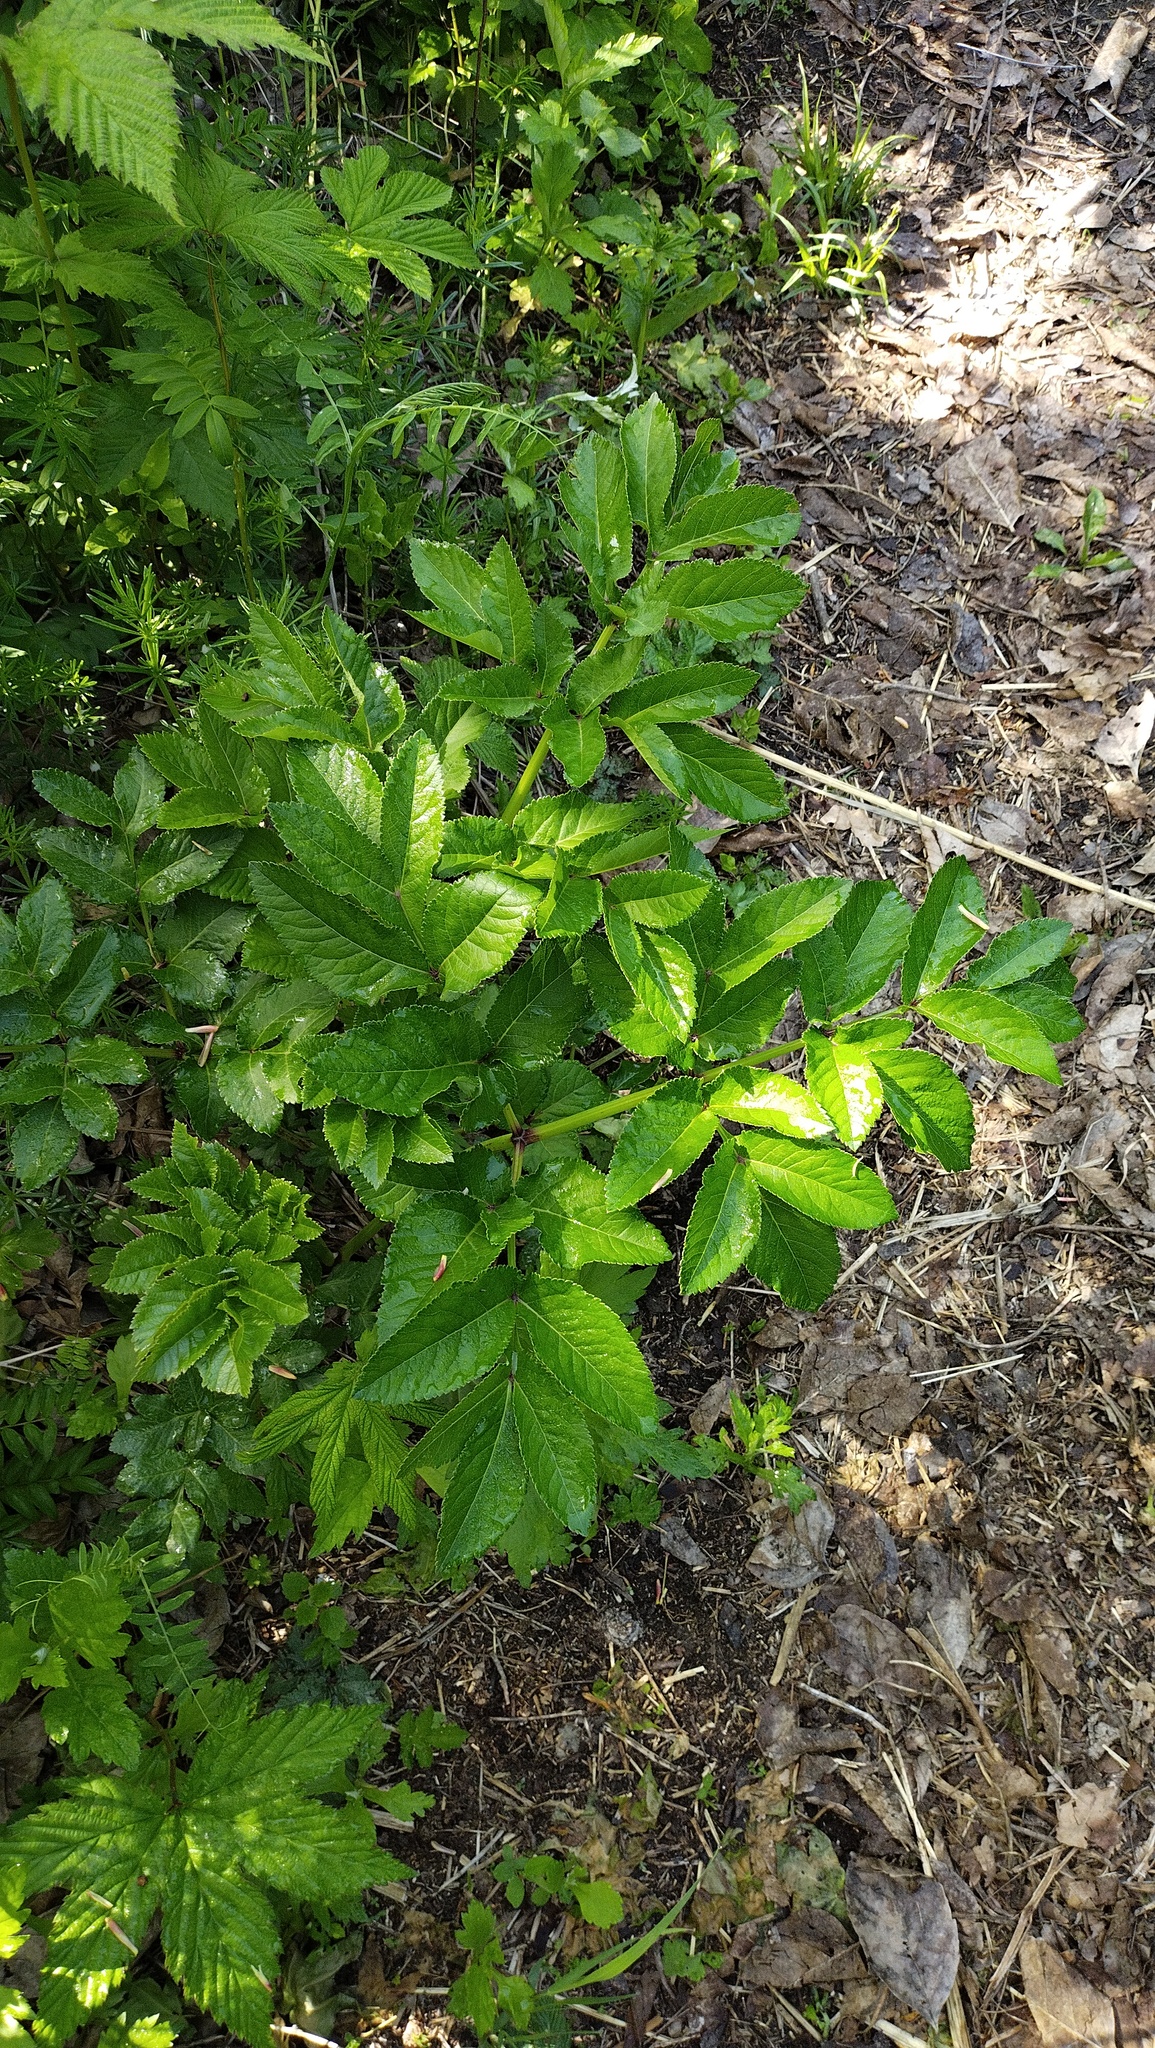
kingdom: Plantae
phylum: Tracheophyta
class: Magnoliopsida
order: Apiales
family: Apiaceae
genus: Angelica
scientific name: Angelica gmelinii
